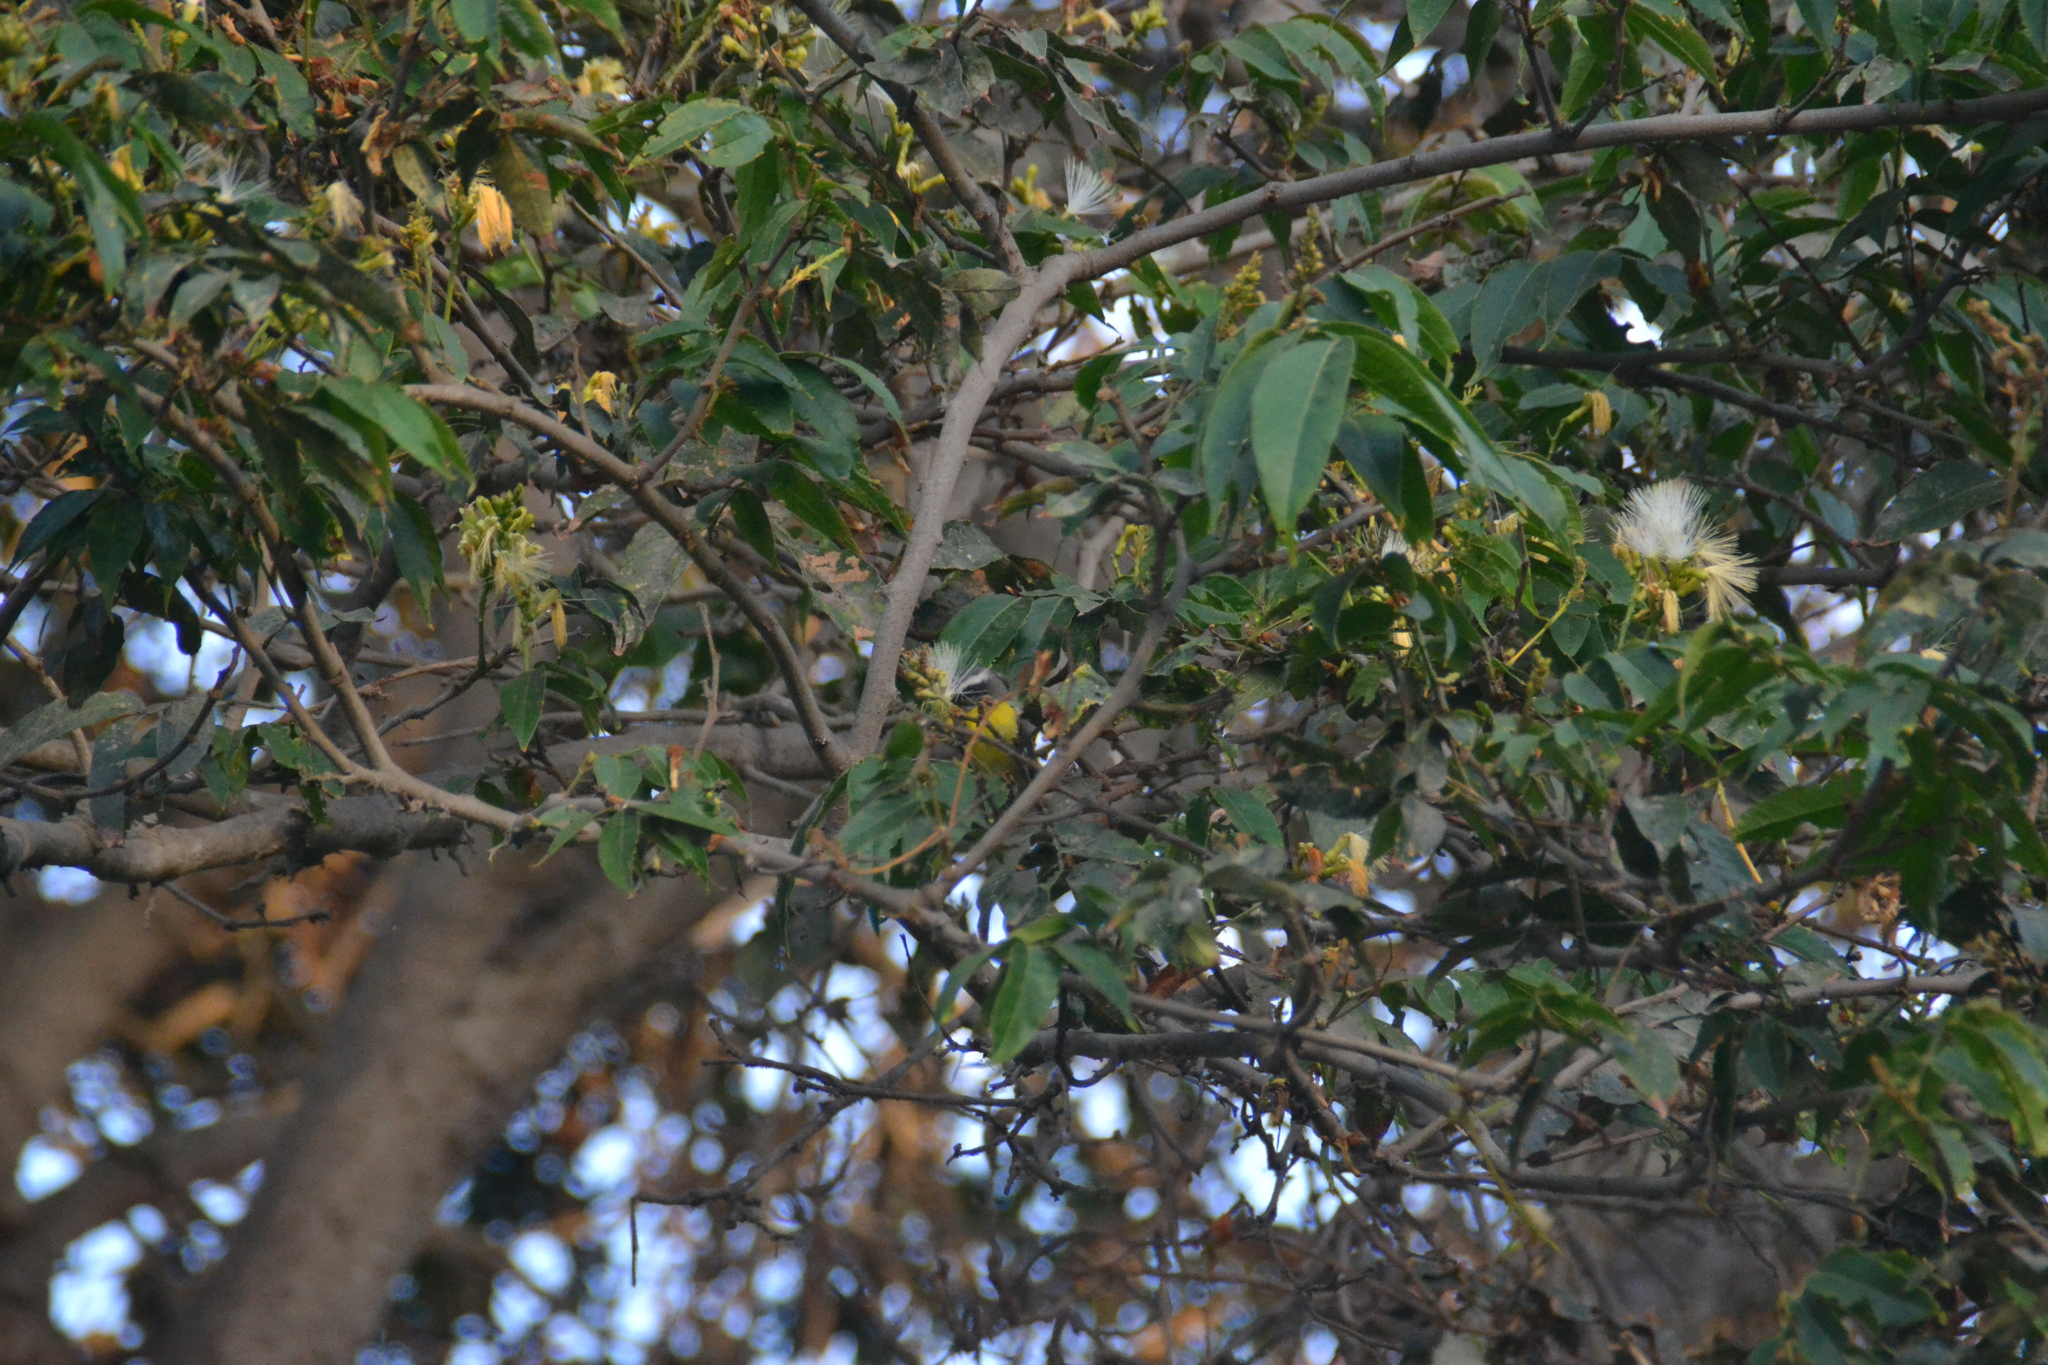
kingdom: Animalia
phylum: Chordata
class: Aves
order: Passeriformes
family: Thraupidae
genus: Coereba
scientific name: Coereba flaveola
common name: Bananaquit
